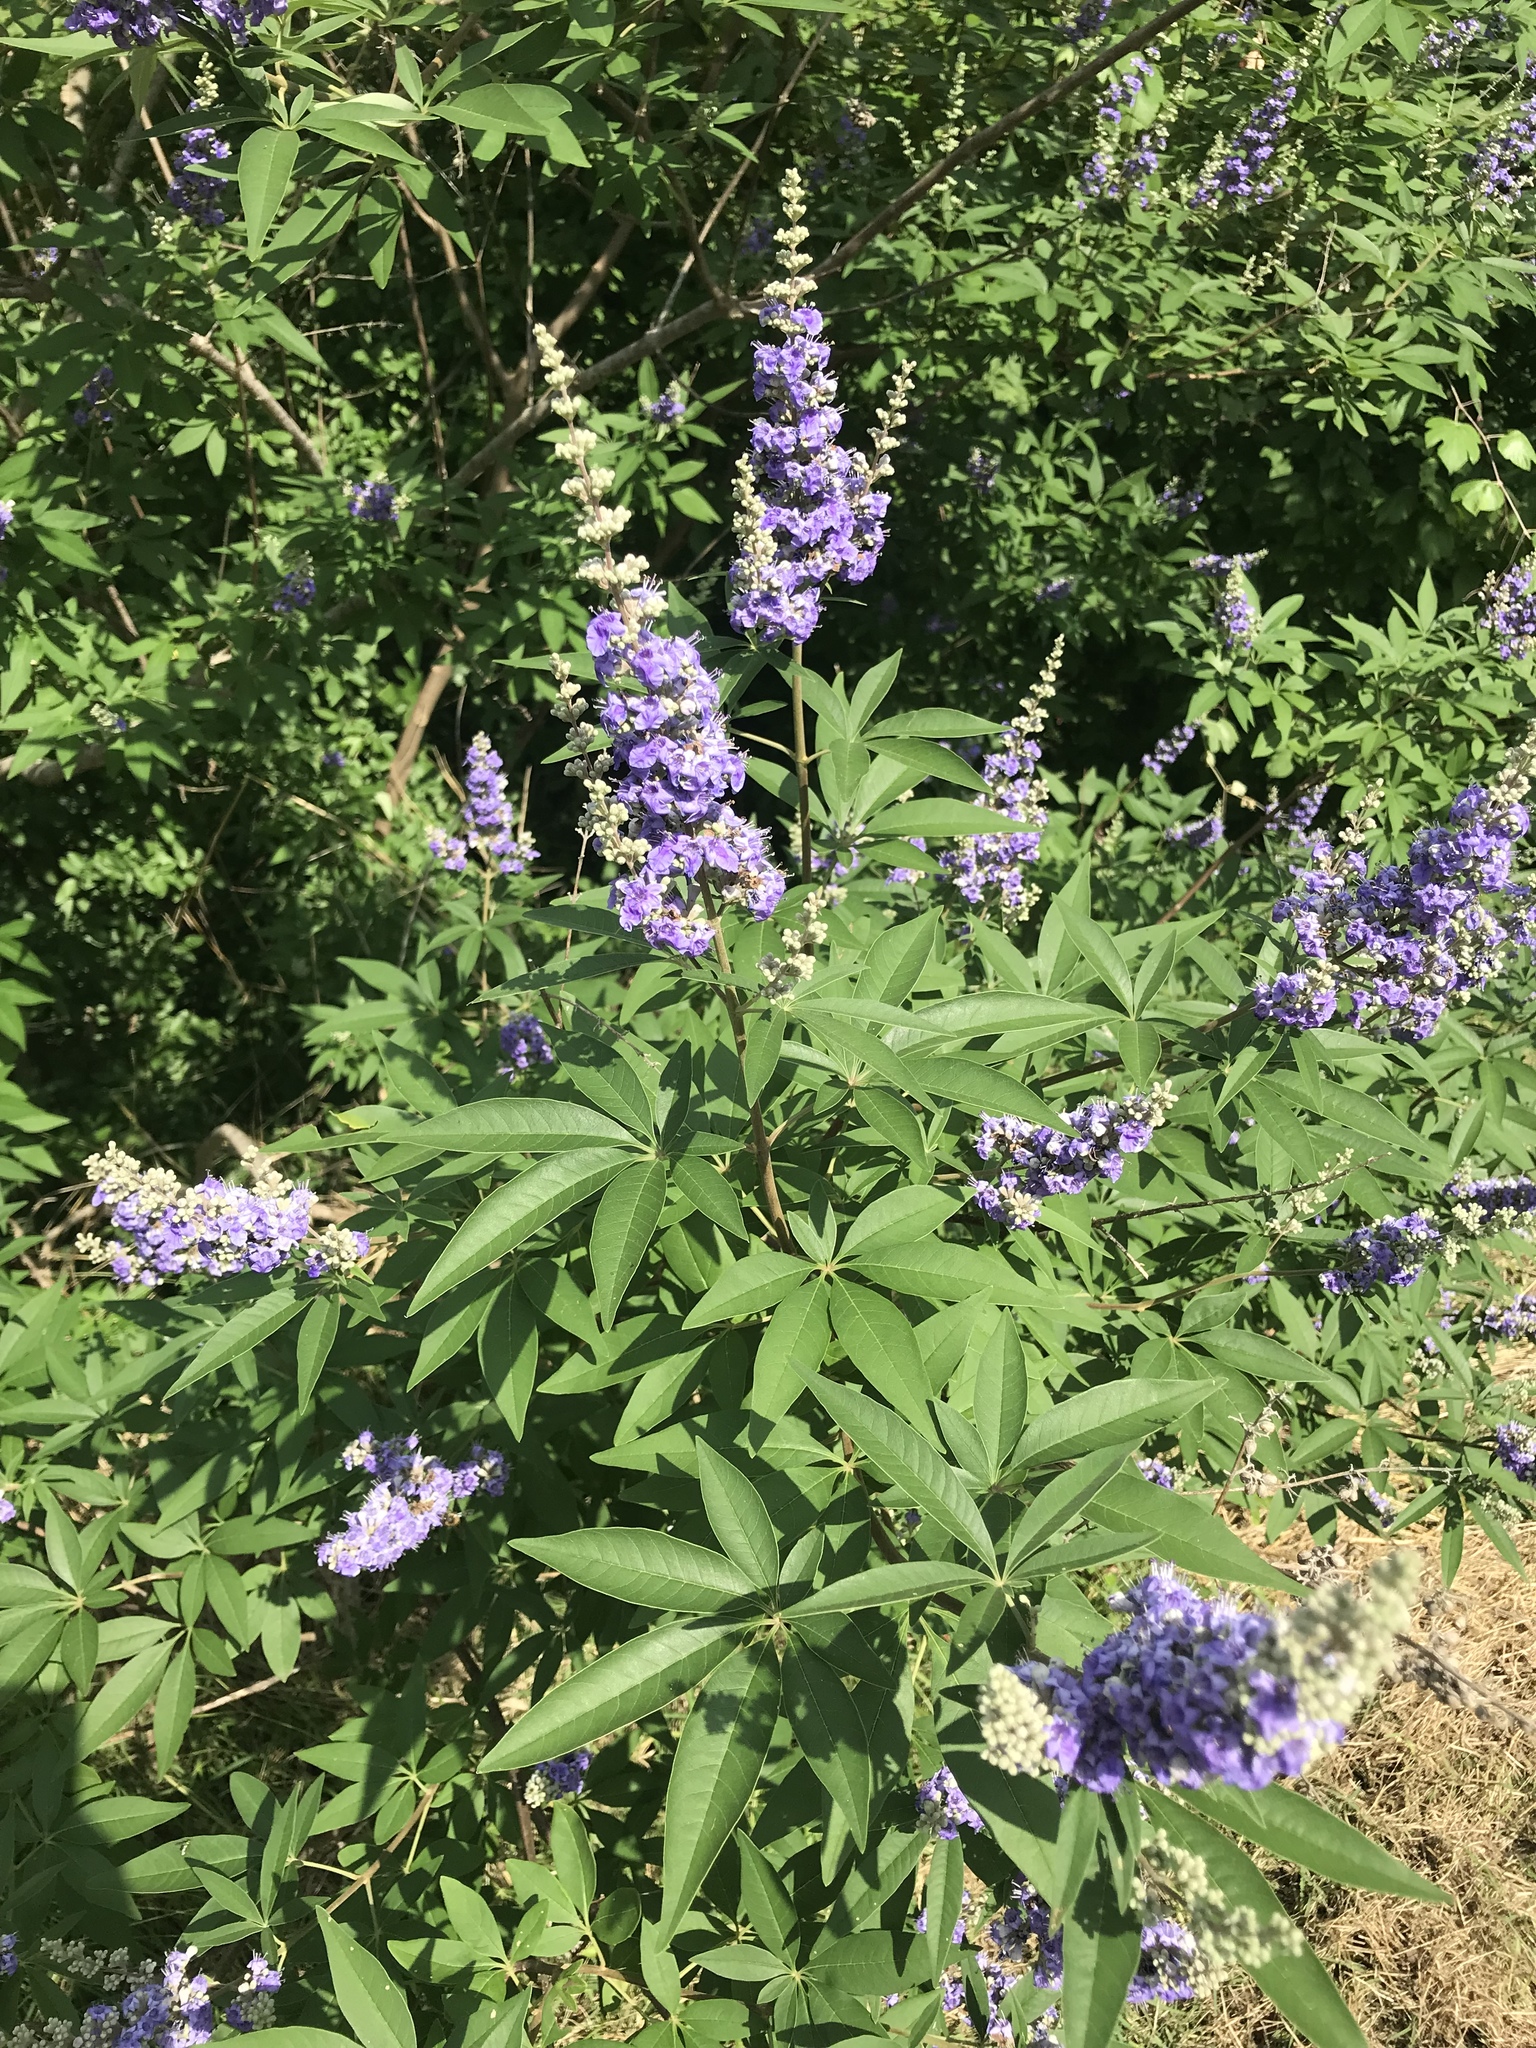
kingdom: Plantae
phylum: Tracheophyta
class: Magnoliopsida
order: Lamiales
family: Lamiaceae
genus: Vitex
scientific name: Vitex agnus-castus
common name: Chasteberry
